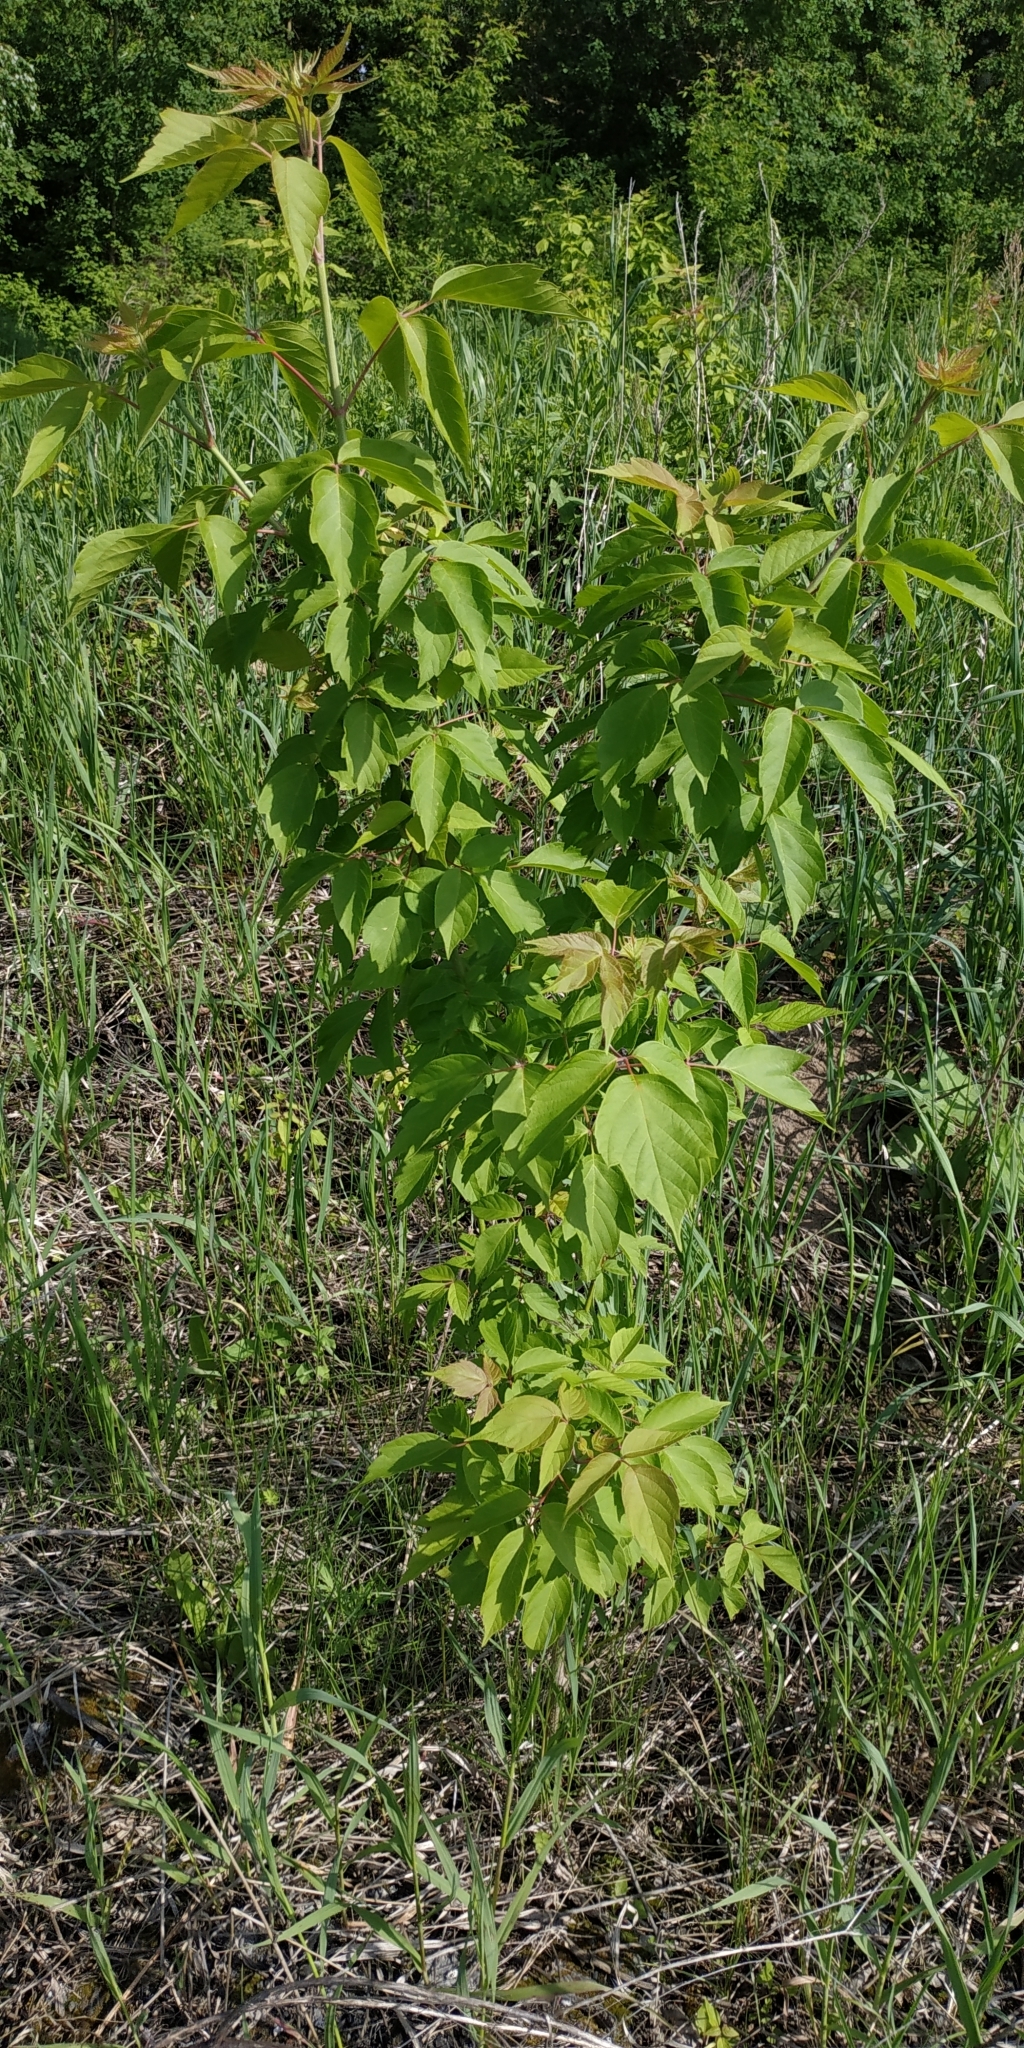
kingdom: Plantae
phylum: Tracheophyta
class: Magnoliopsida
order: Sapindales
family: Sapindaceae
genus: Acer
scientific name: Acer negundo
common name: Ashleaf maple
